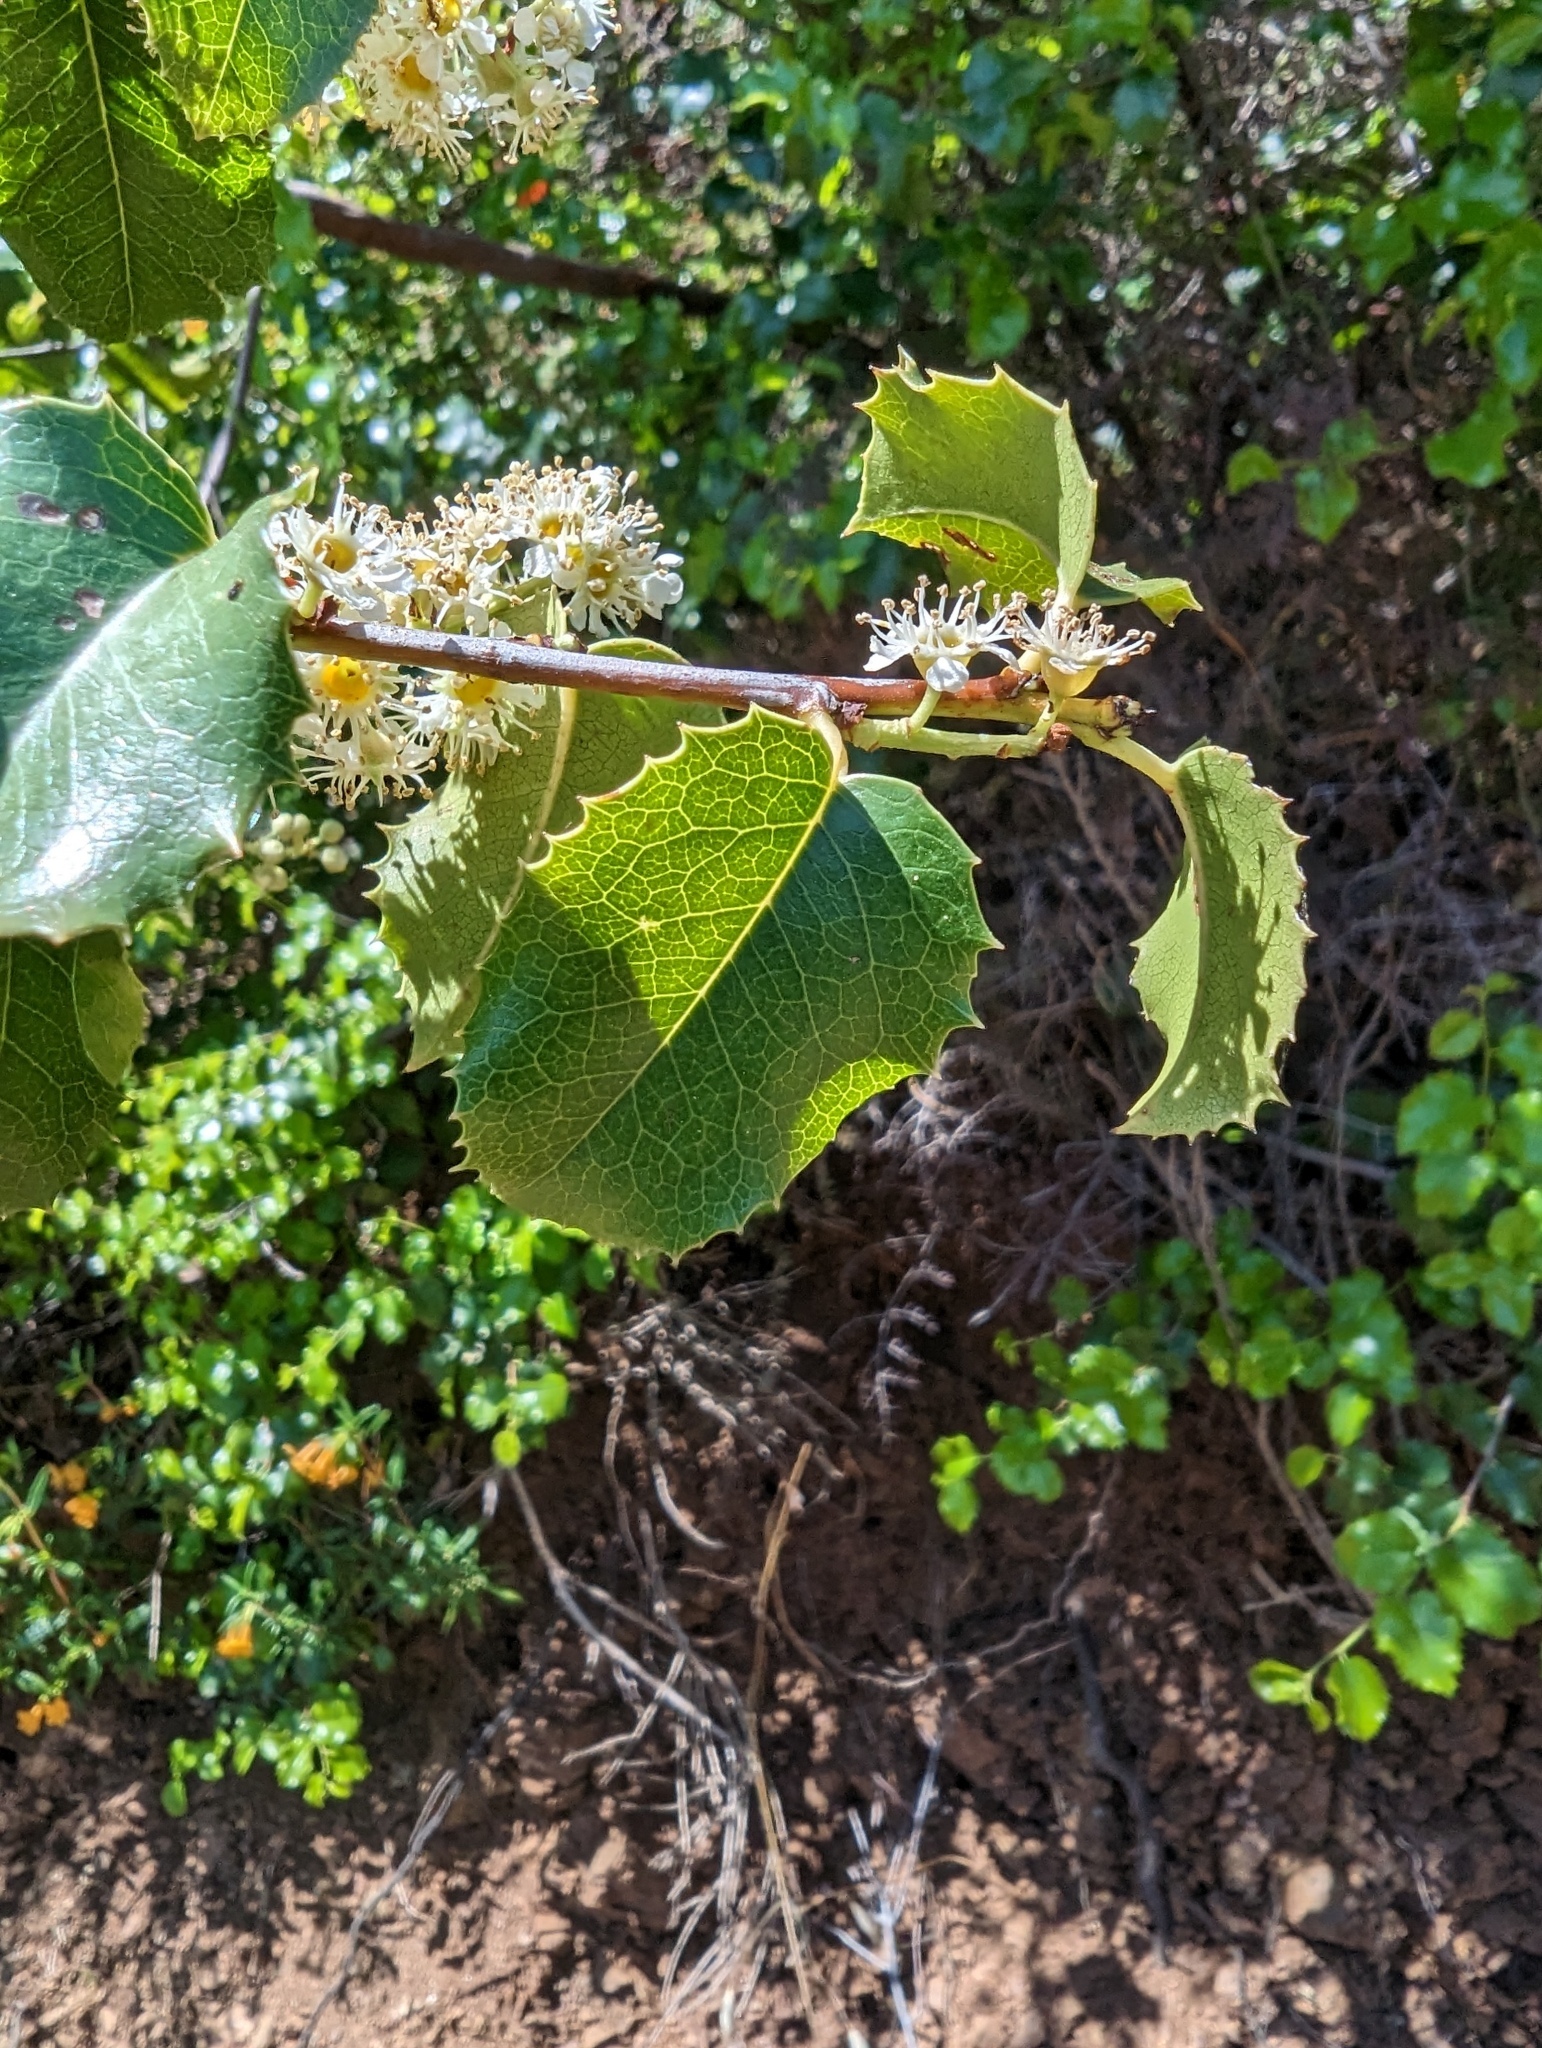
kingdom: Plantae
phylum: Tracheophyta
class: Magnoliopsida
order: Rosales
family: Rosaceae
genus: Prunus
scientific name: Prunus ilicifolia
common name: Hollyleaf cherry
